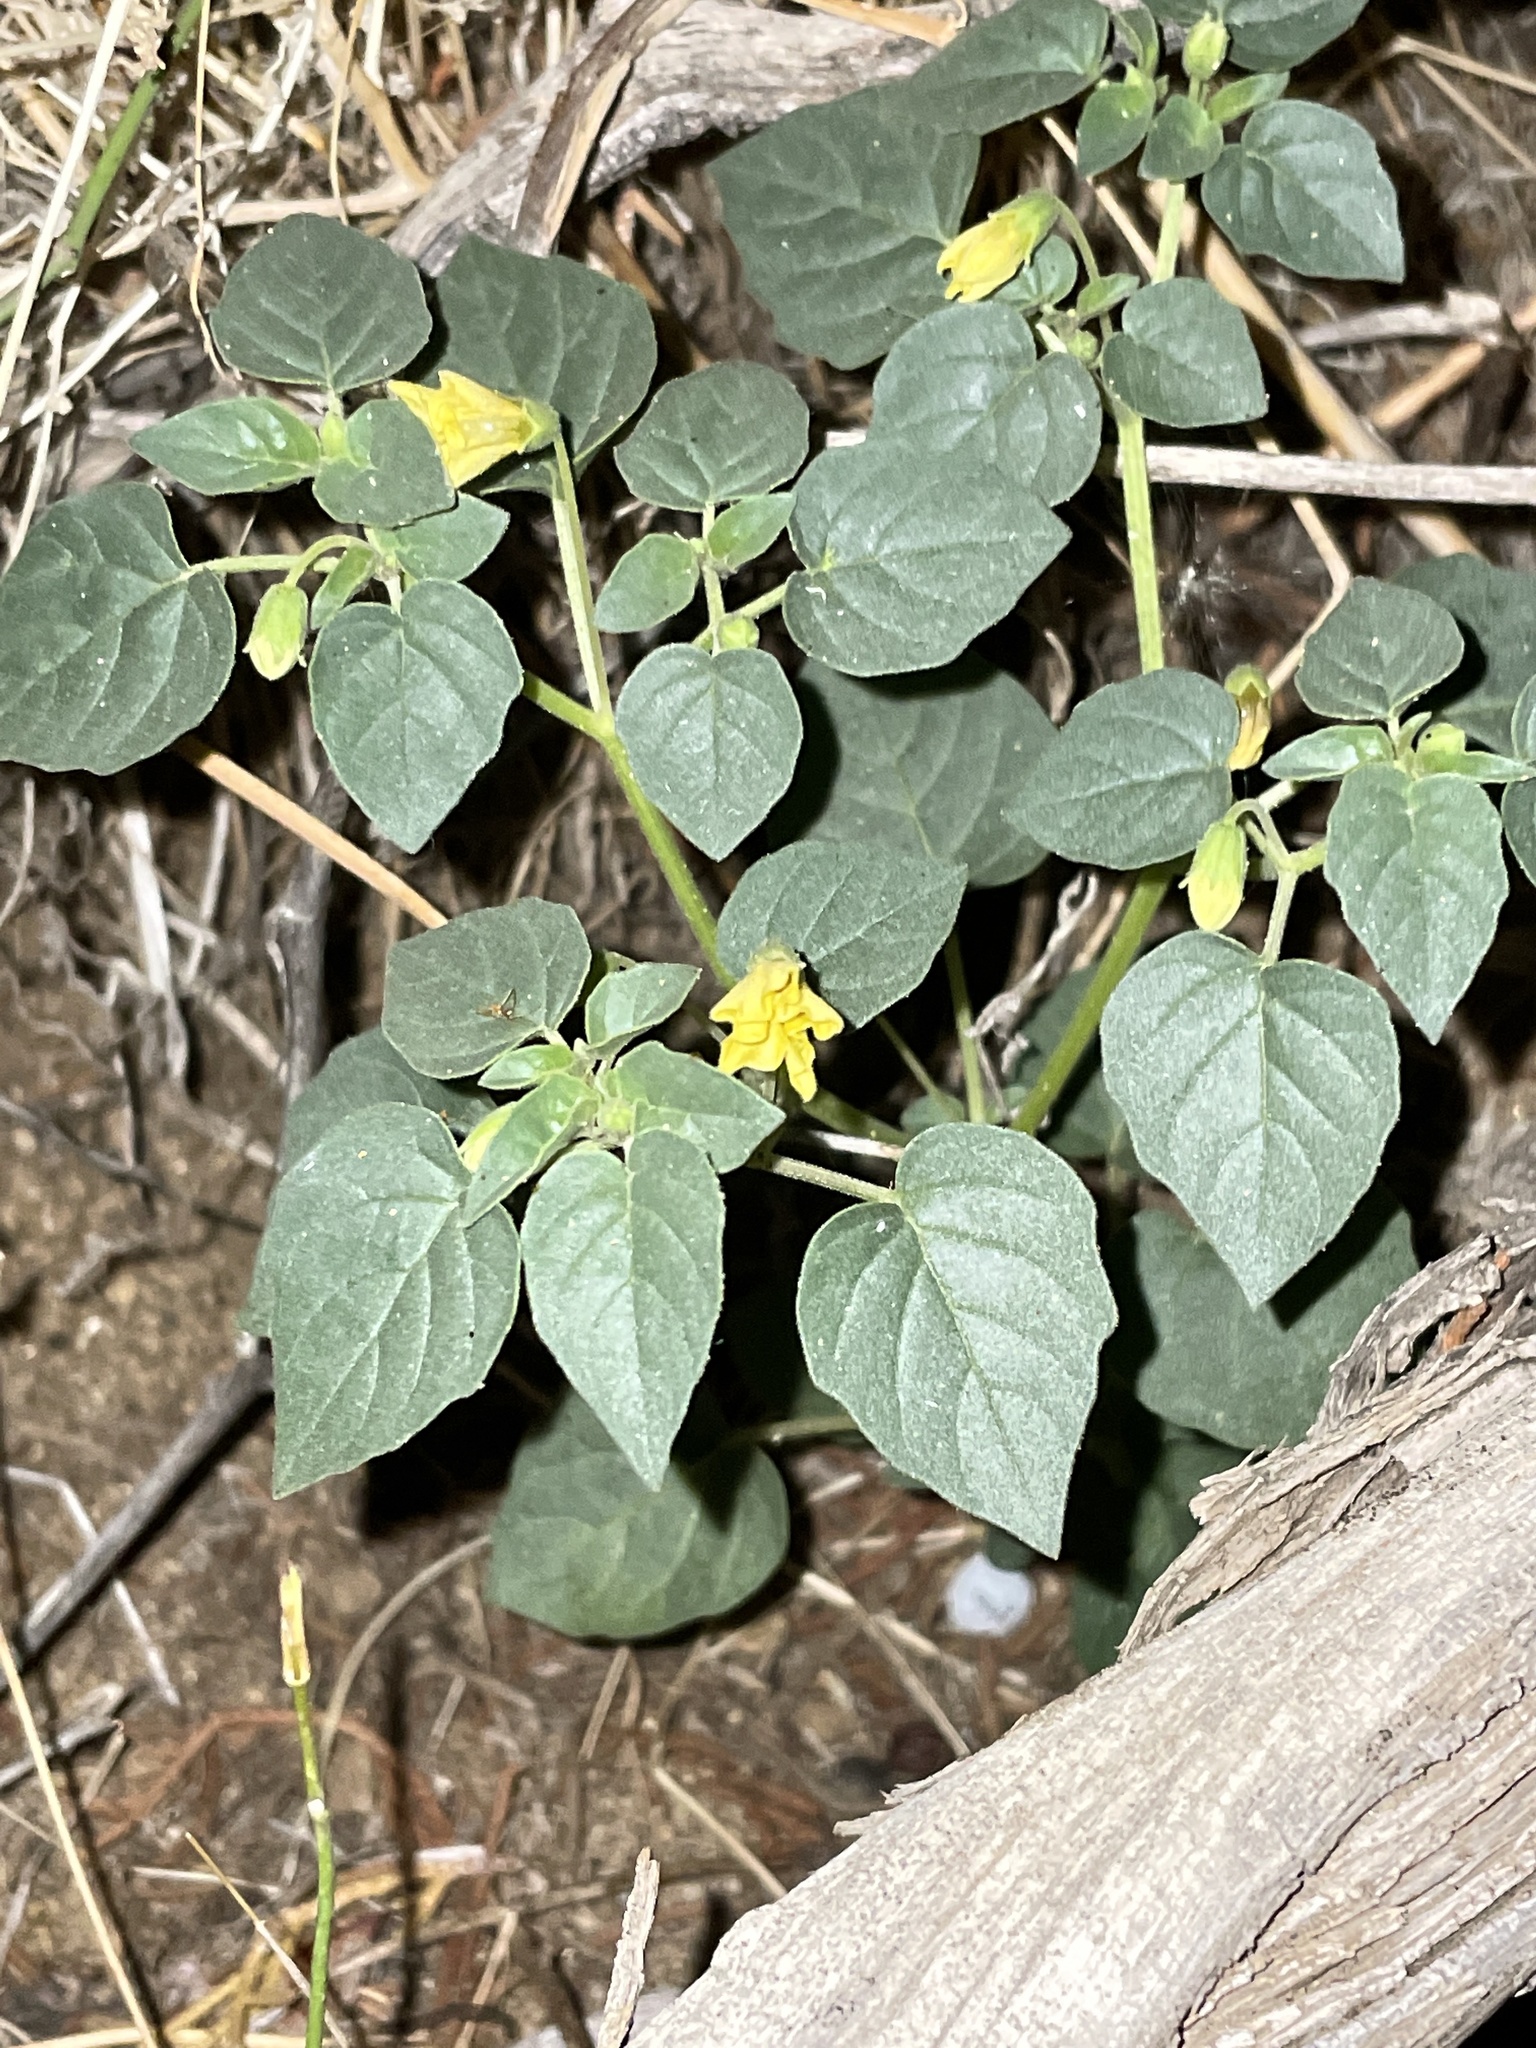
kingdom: Plantae
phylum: Tracheophyta
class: Magnoliopsida
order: Solanales
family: Solanaceae
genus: Physalis
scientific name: Physalis crassifolia
